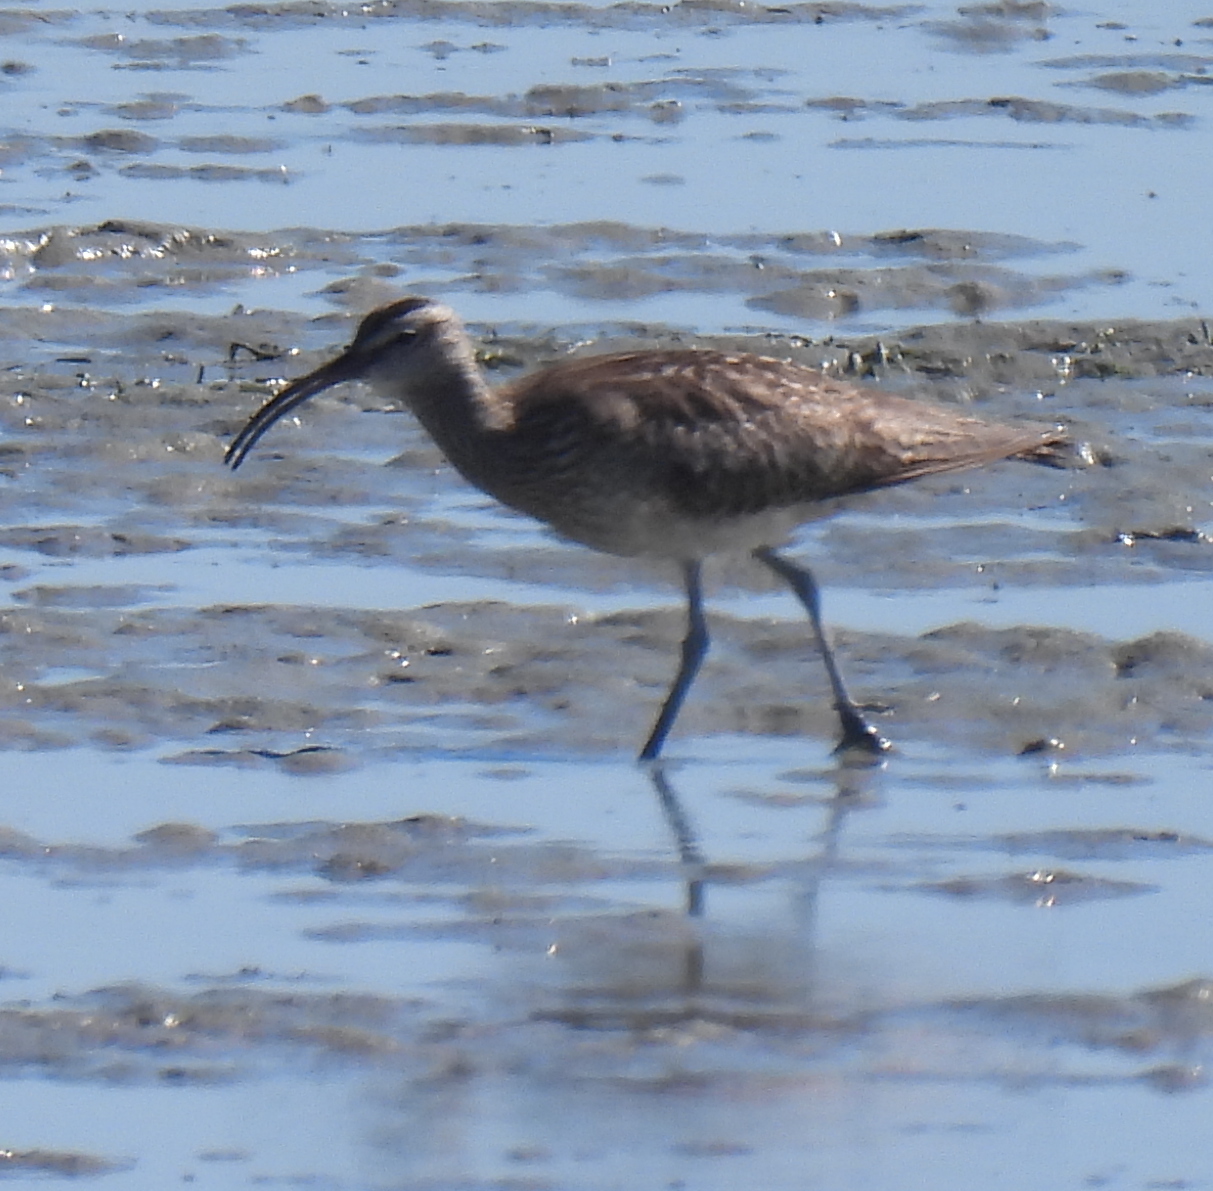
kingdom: Animalia
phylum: Chordata
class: Aves
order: Charadriiformes
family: Scolopacidae
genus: Numenius
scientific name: Numenius phaeopus
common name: Whimbrel
